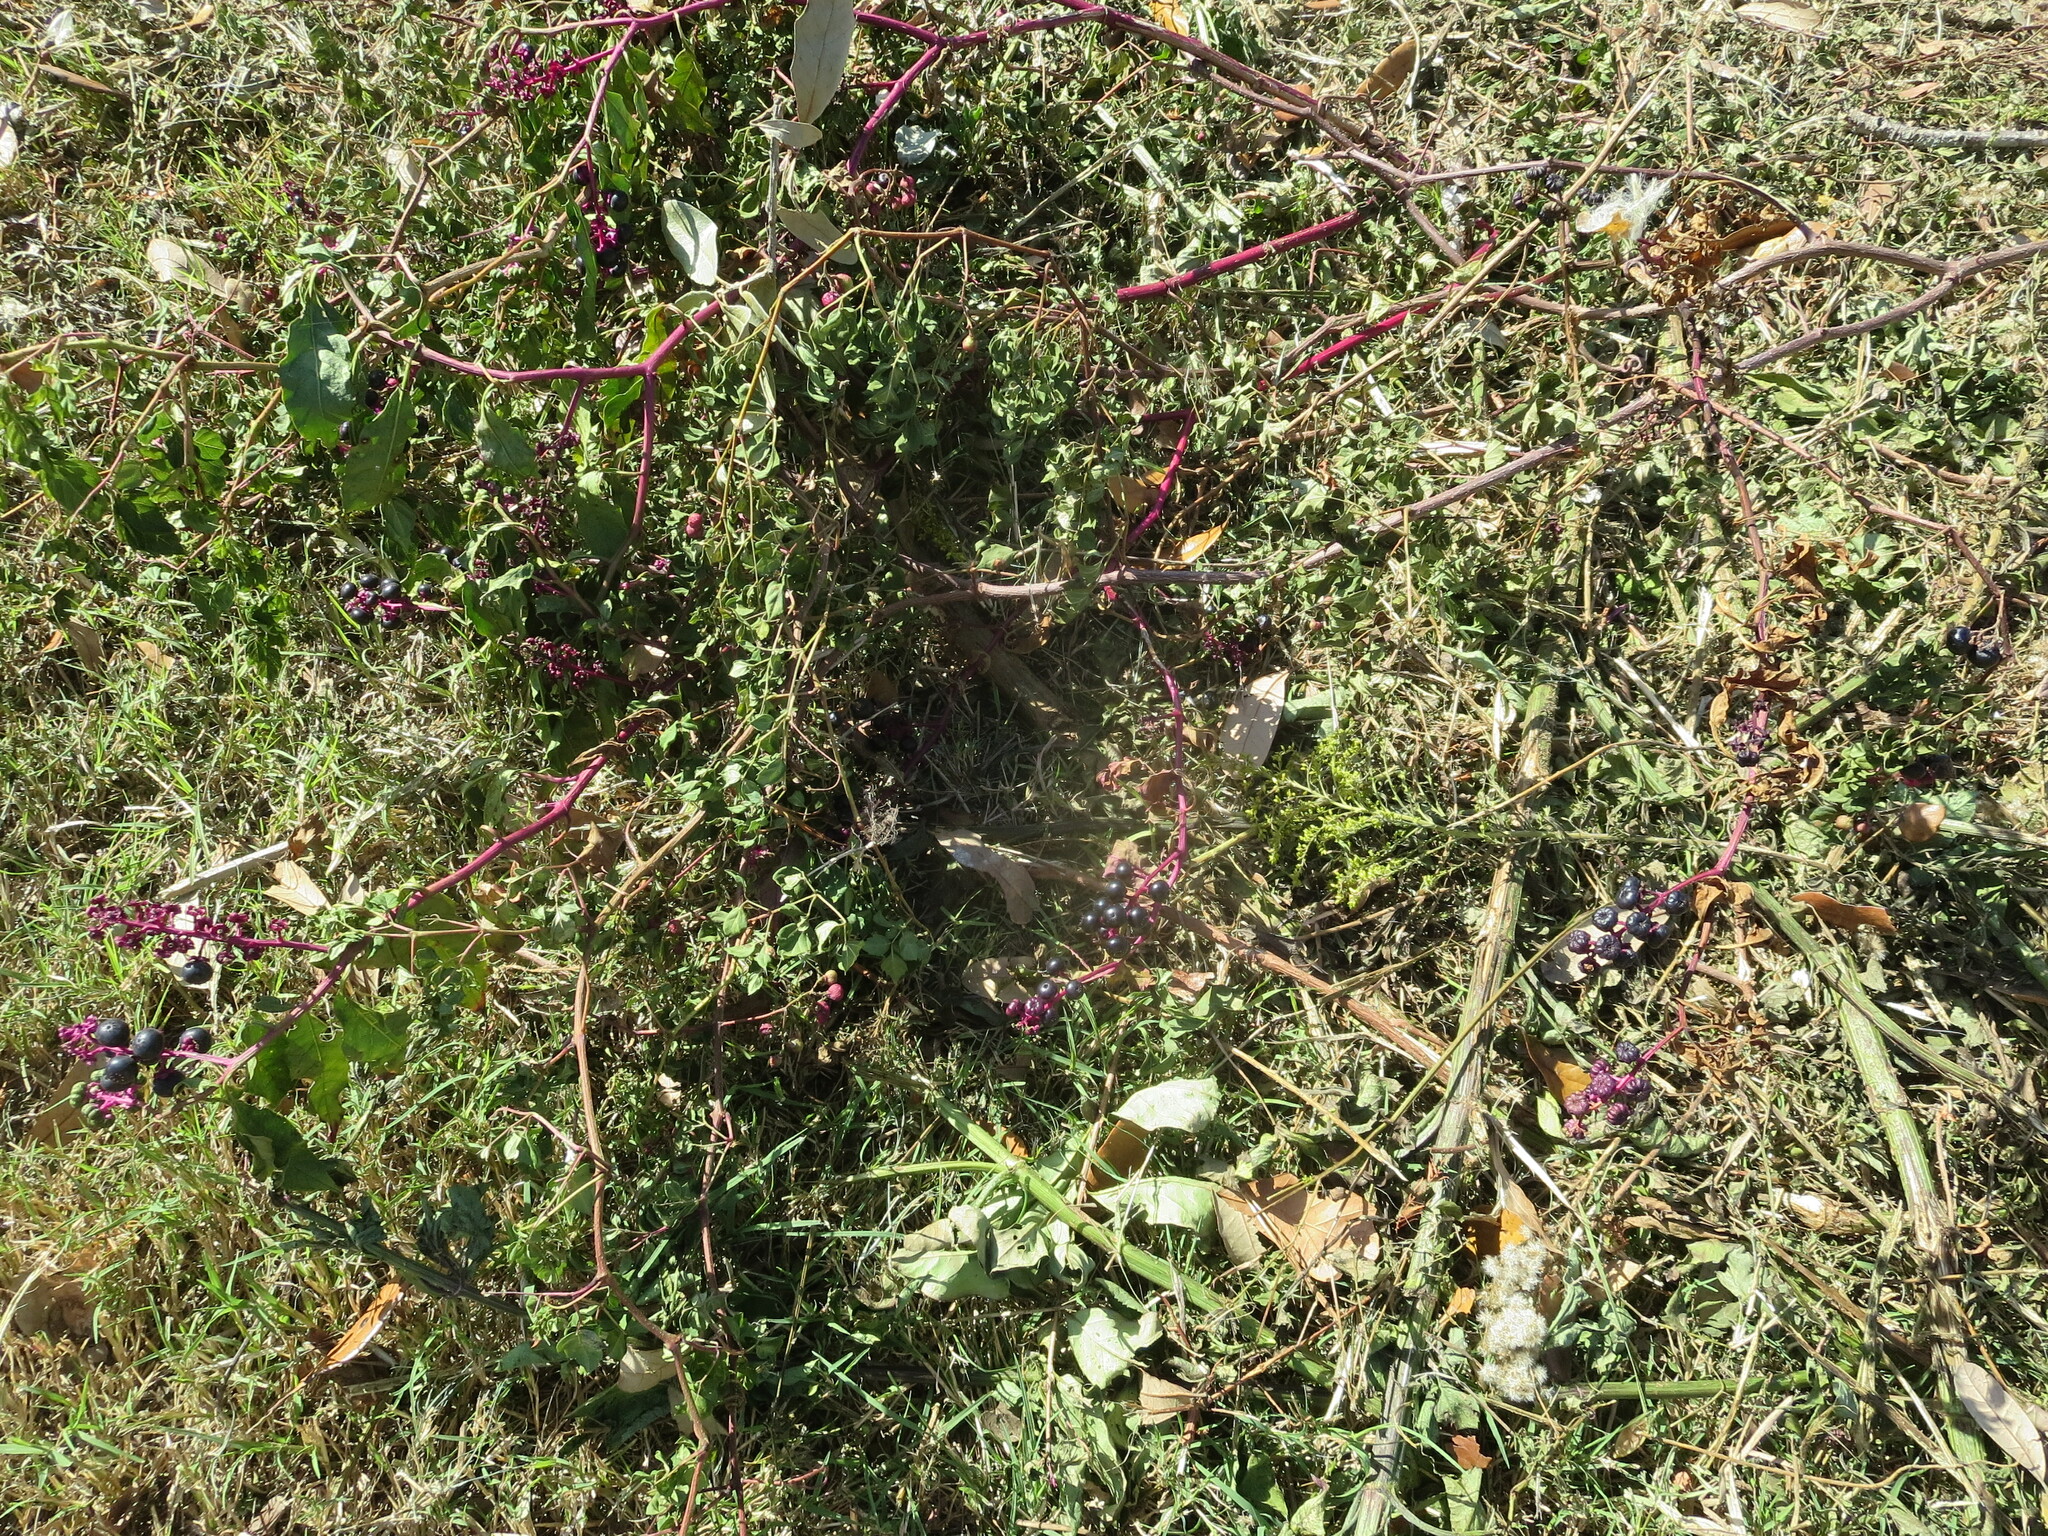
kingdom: Plantae
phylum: Tracheophyta
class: Magnoliopsida
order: Caryophyllales
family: Phytolaccaceae
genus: Phytolacca
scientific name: Phytolacca americana
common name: American pokeweed
